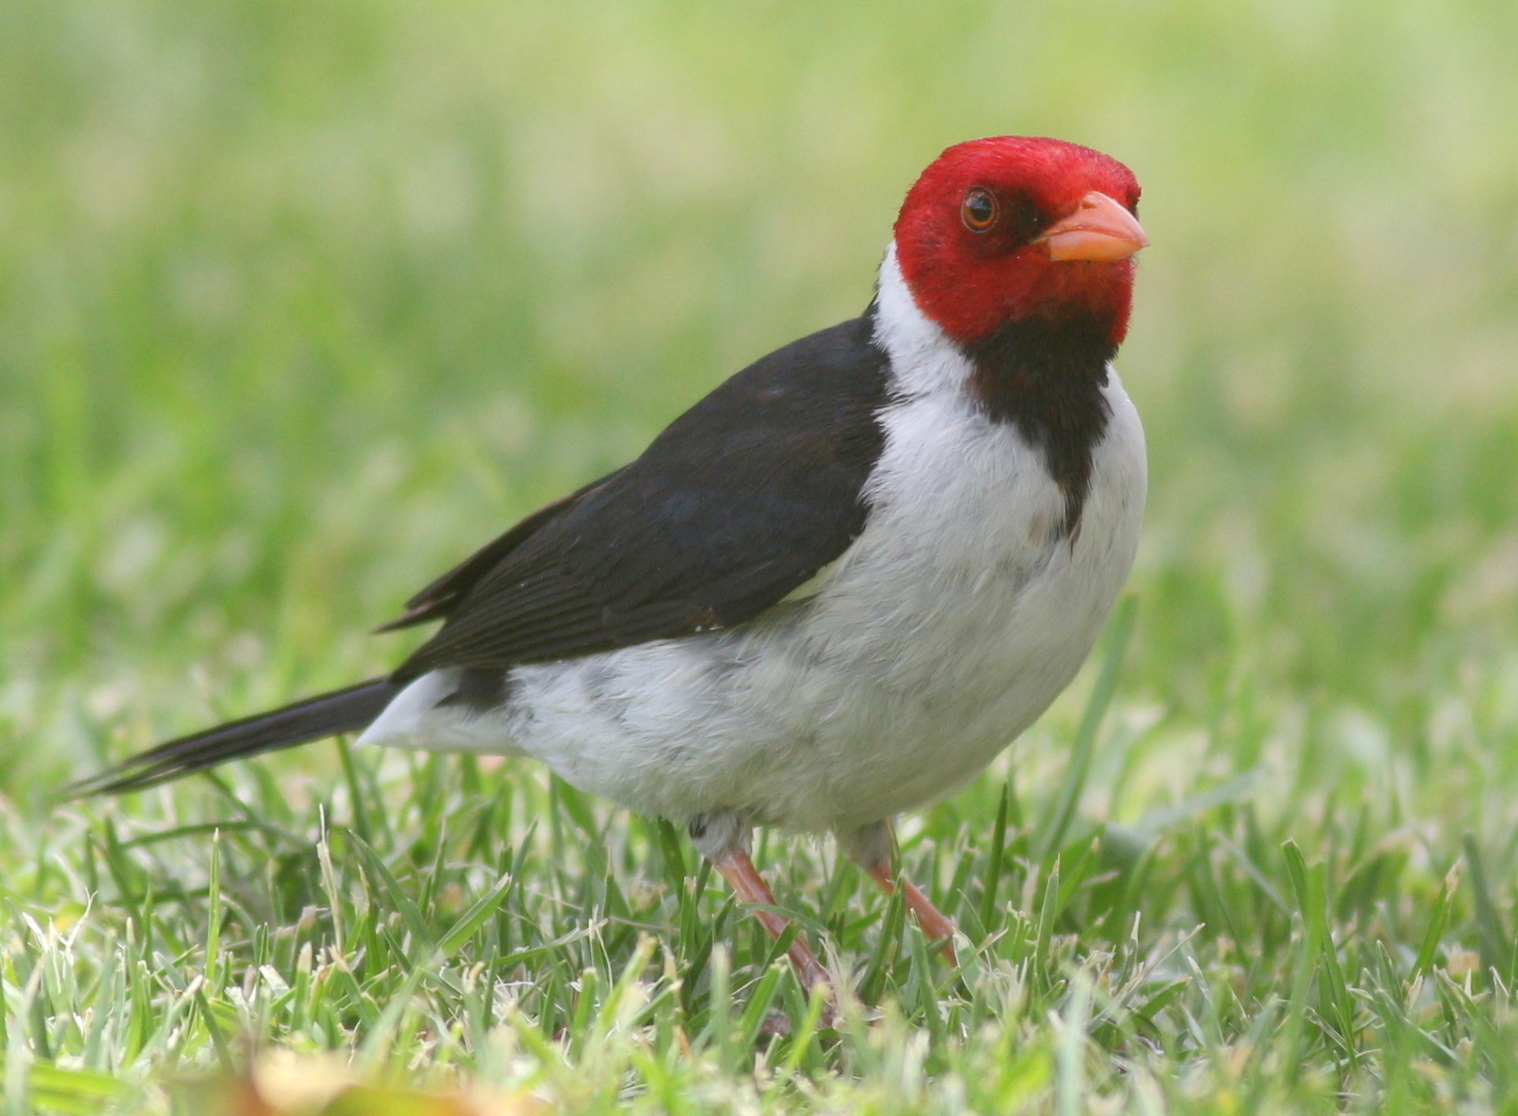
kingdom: Animalia
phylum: Chordata
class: Aves
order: Passeriformes
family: Thraupidae
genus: Paroaria
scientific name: Paroaria capitata
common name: Yellow-billed cardinal
